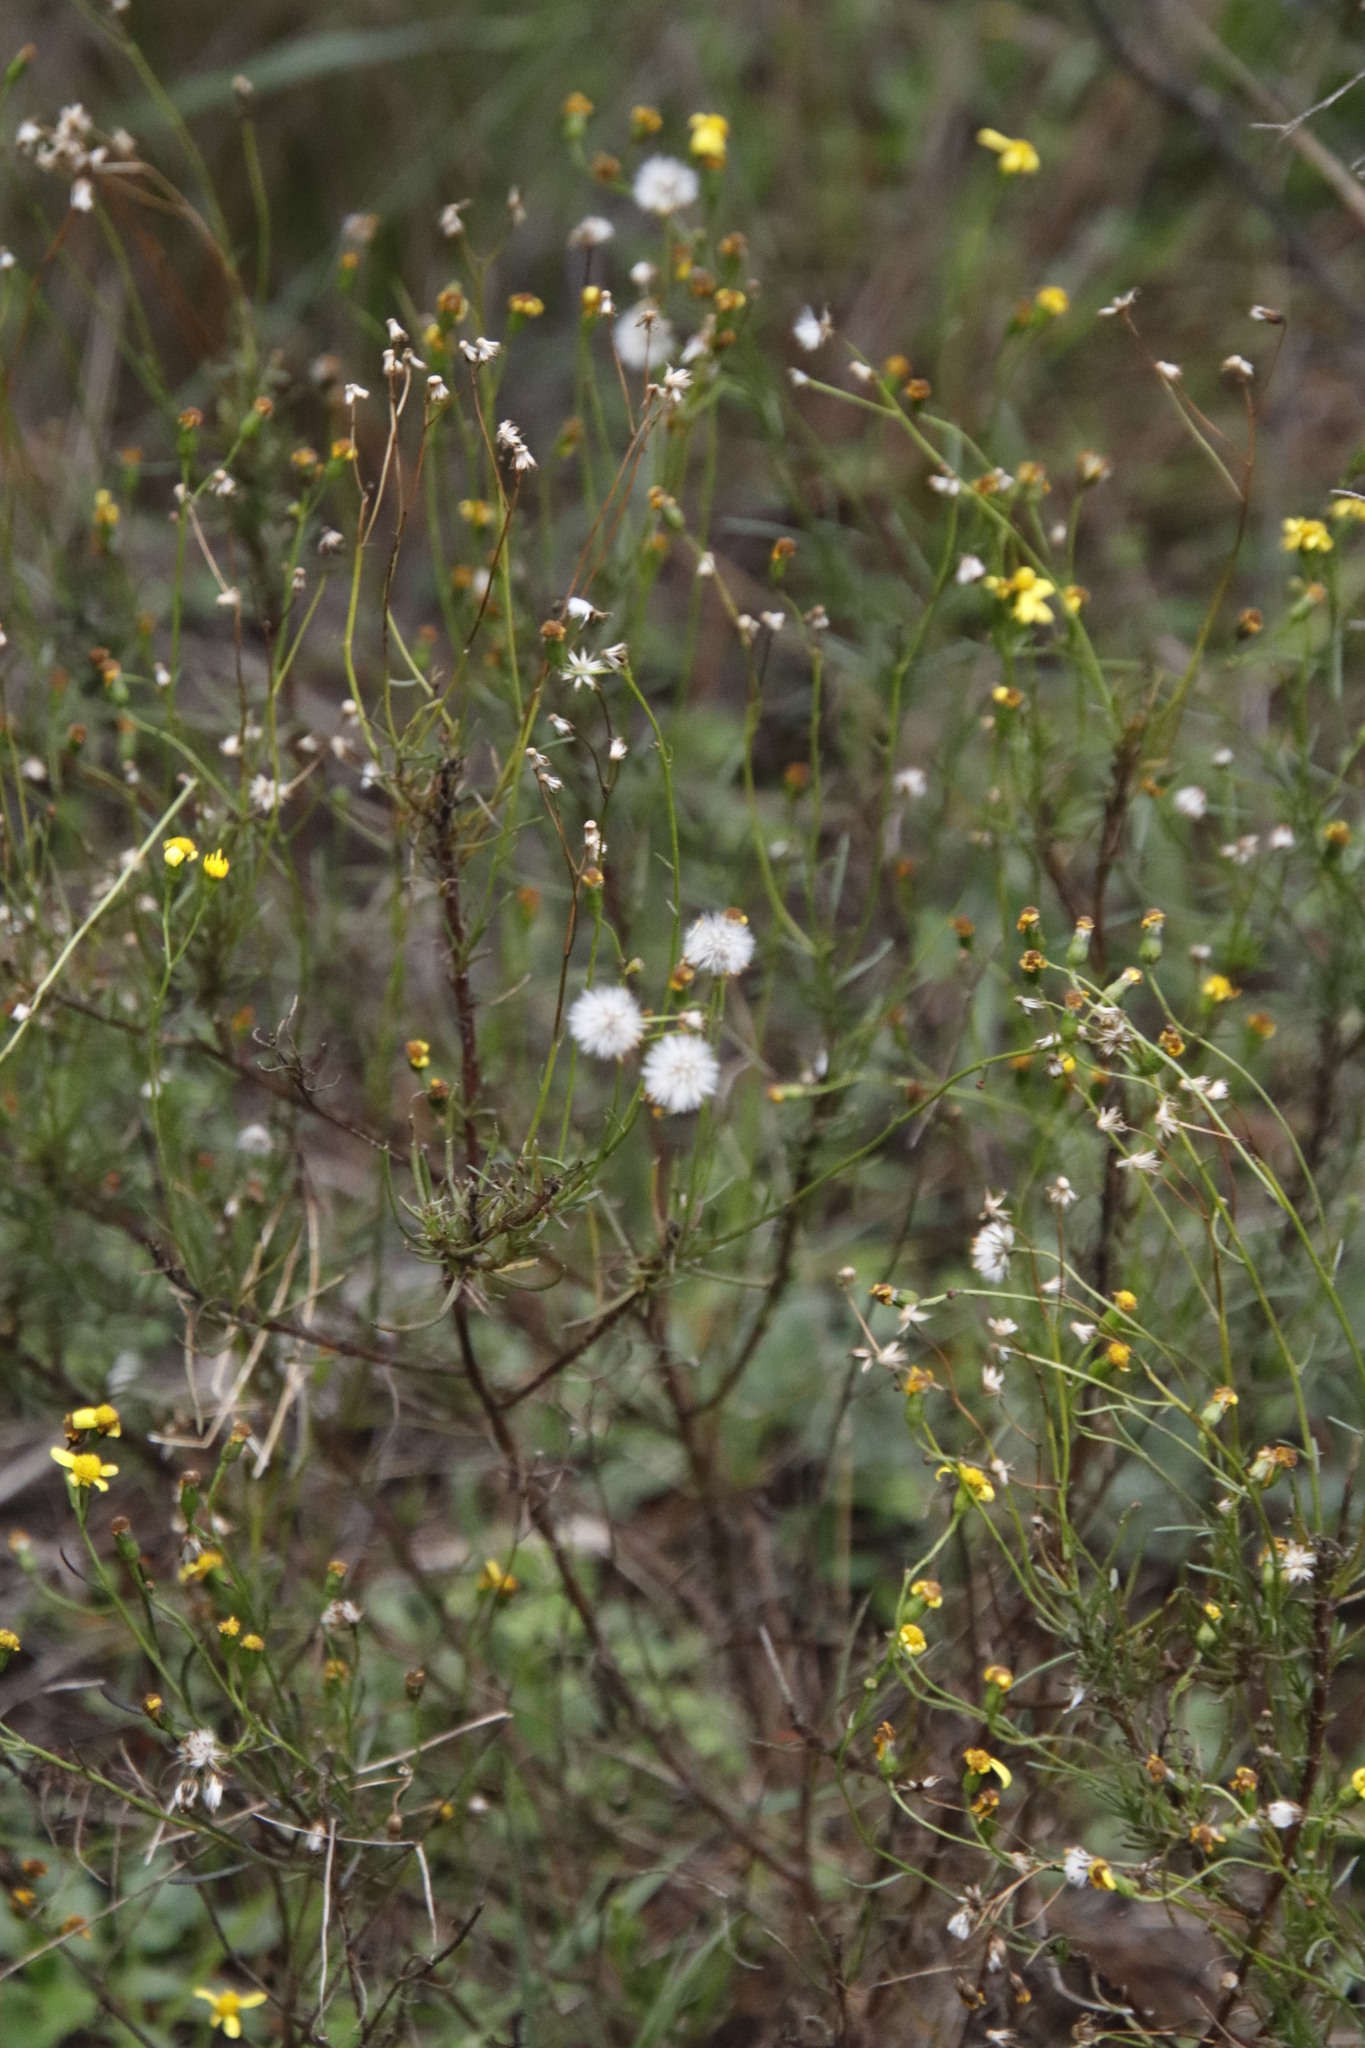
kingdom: Plantae
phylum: Tracheophyta
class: Magnoliopsida
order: Asterales
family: Asteraceae
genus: Senecio
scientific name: Senecio burchellii
